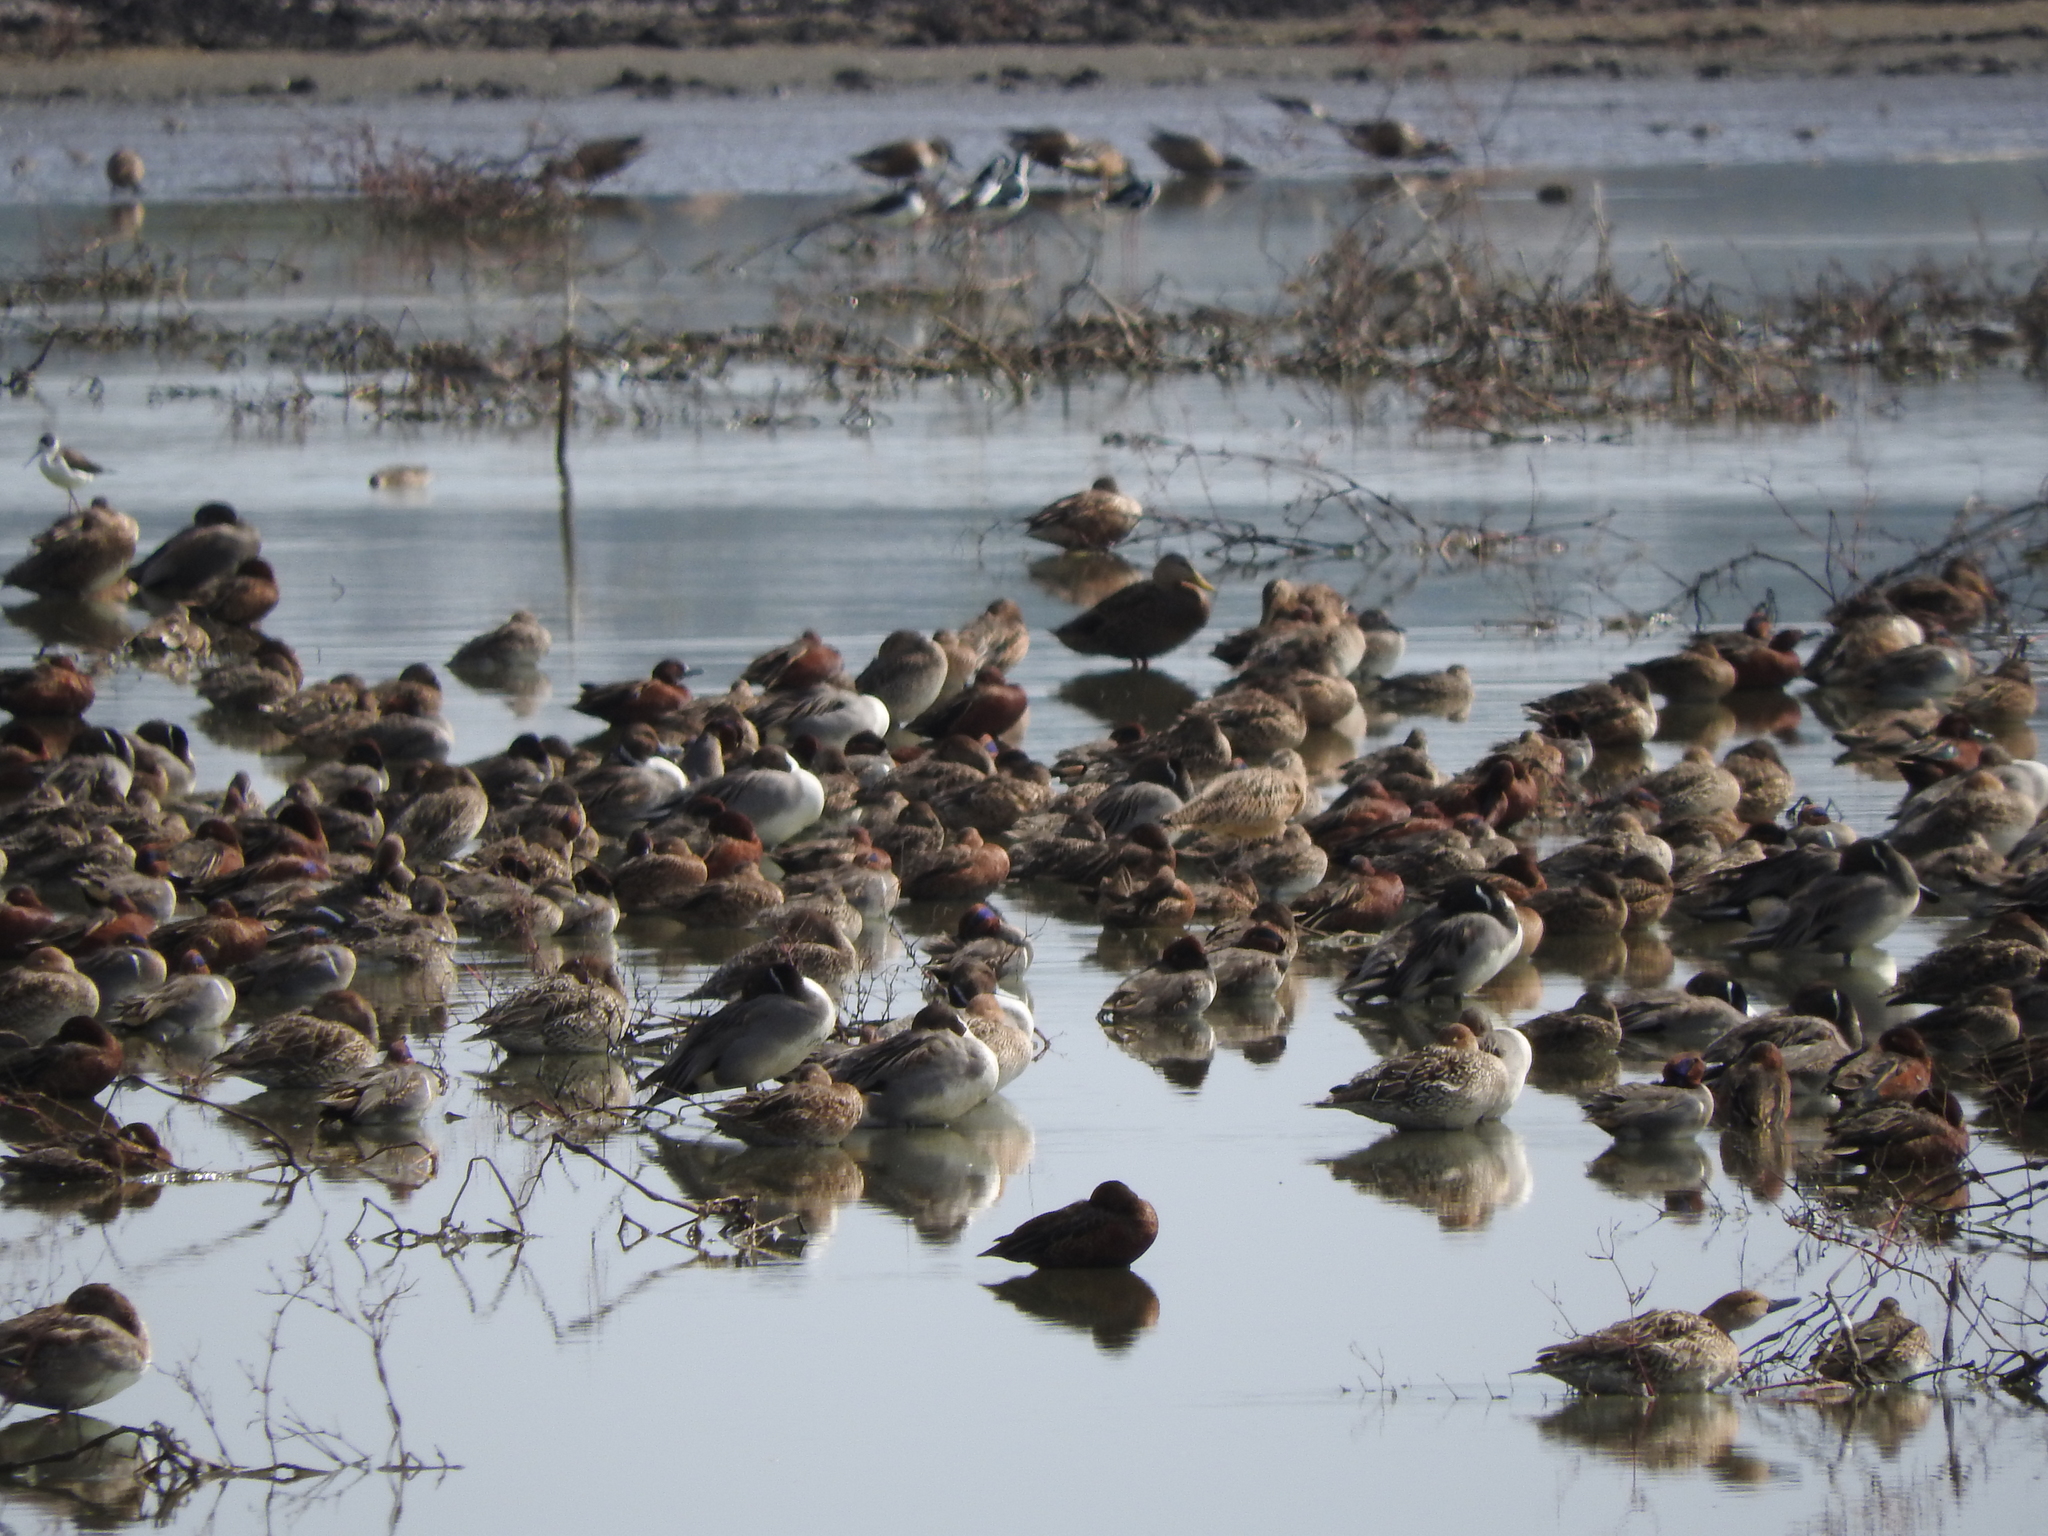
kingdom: Animalia
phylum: Chordata
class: Aves
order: Anseriformes
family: Anatidae
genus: Anas
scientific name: Anas acuta
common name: Northern pintail
